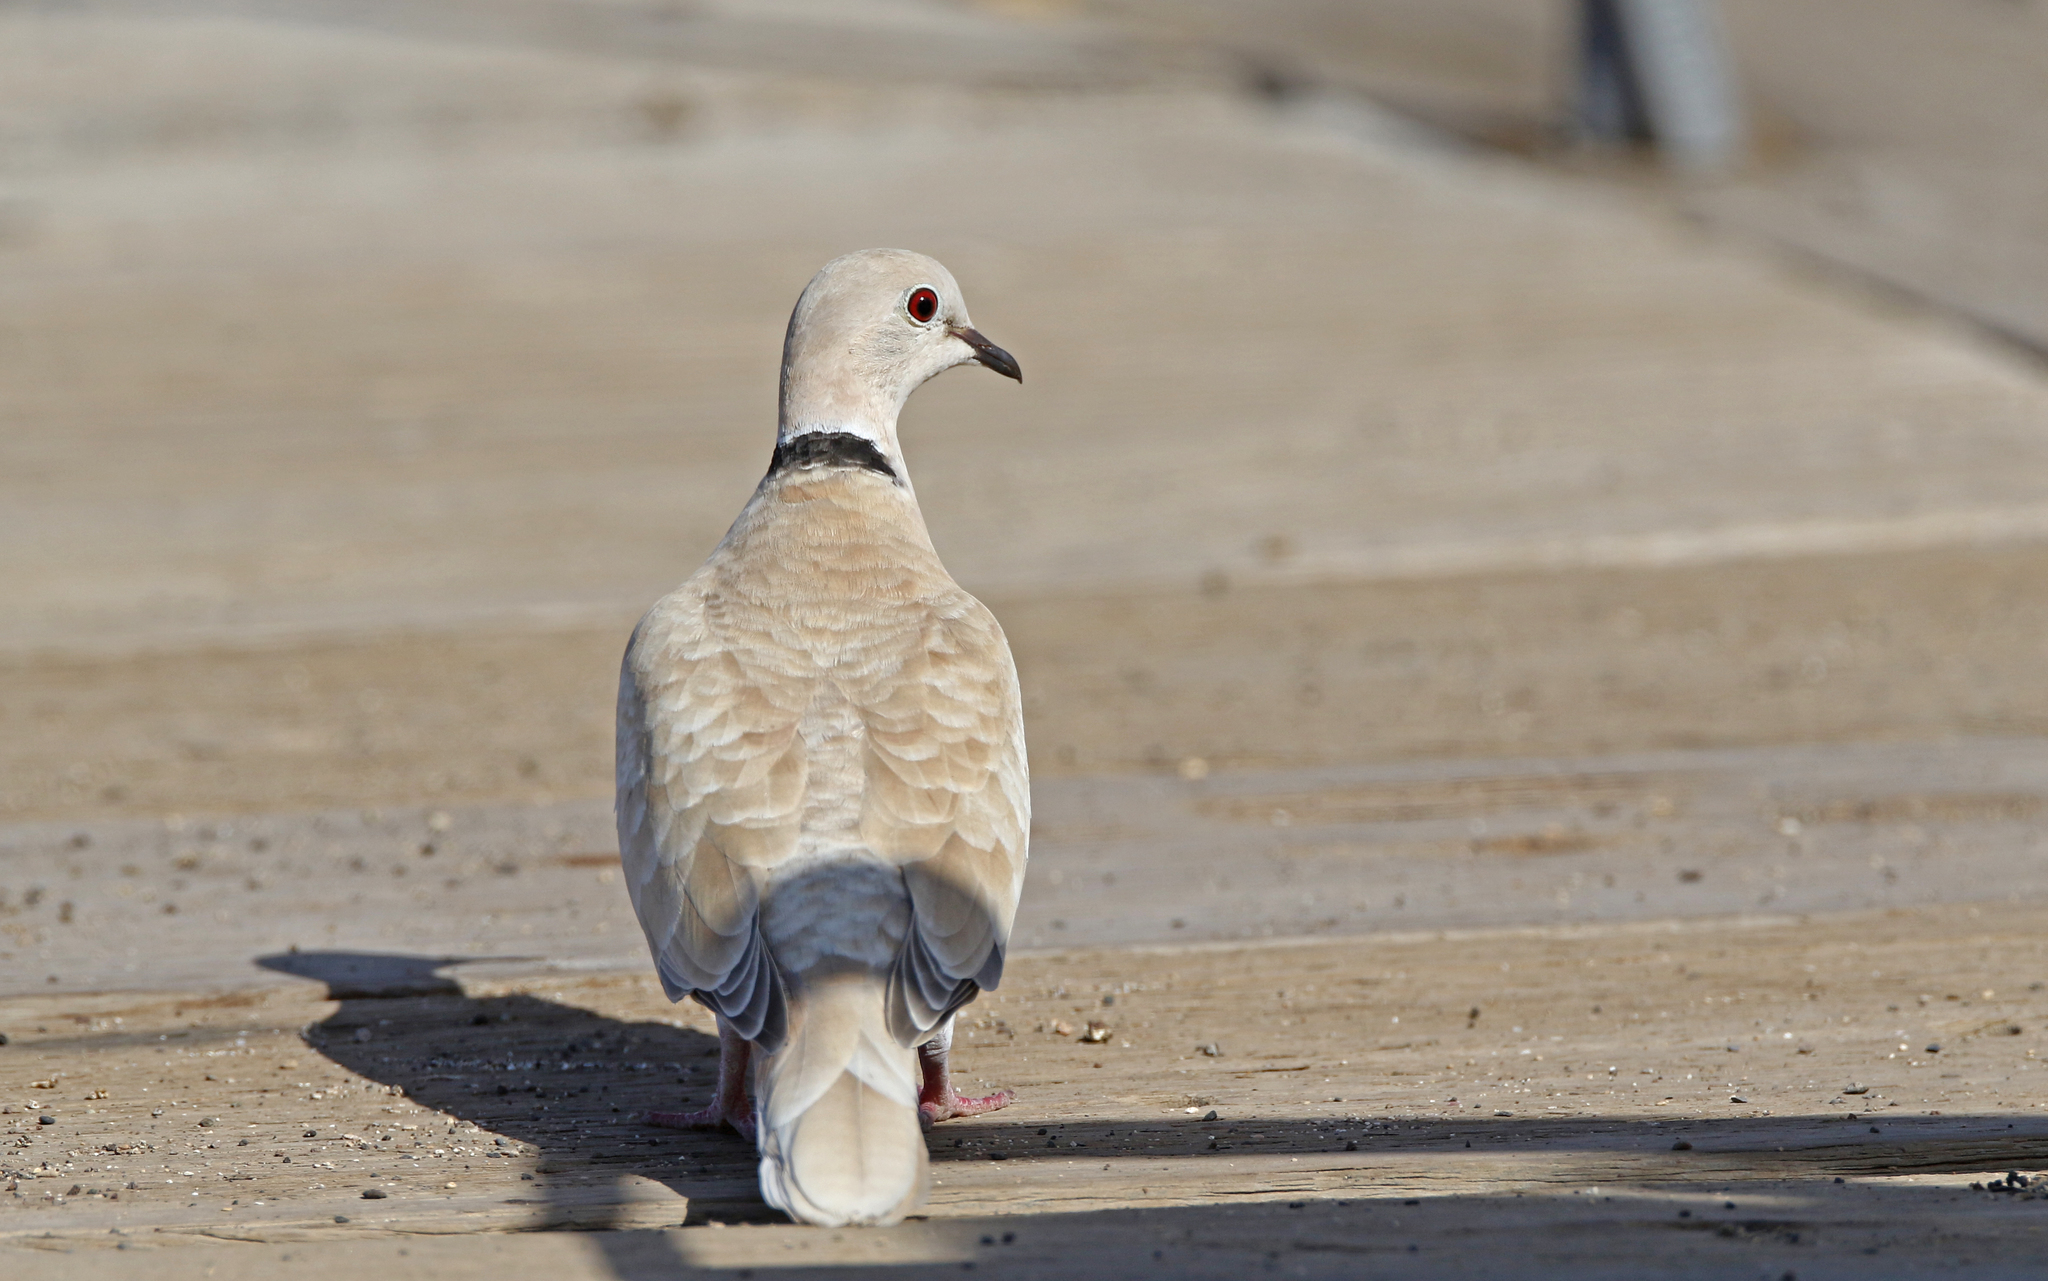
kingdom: Animalia
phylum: Chordata
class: Aves
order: Columbiformes
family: Columbidae
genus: Streptopelia
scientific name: Streptopelia roseogrisea
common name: African collared dove
